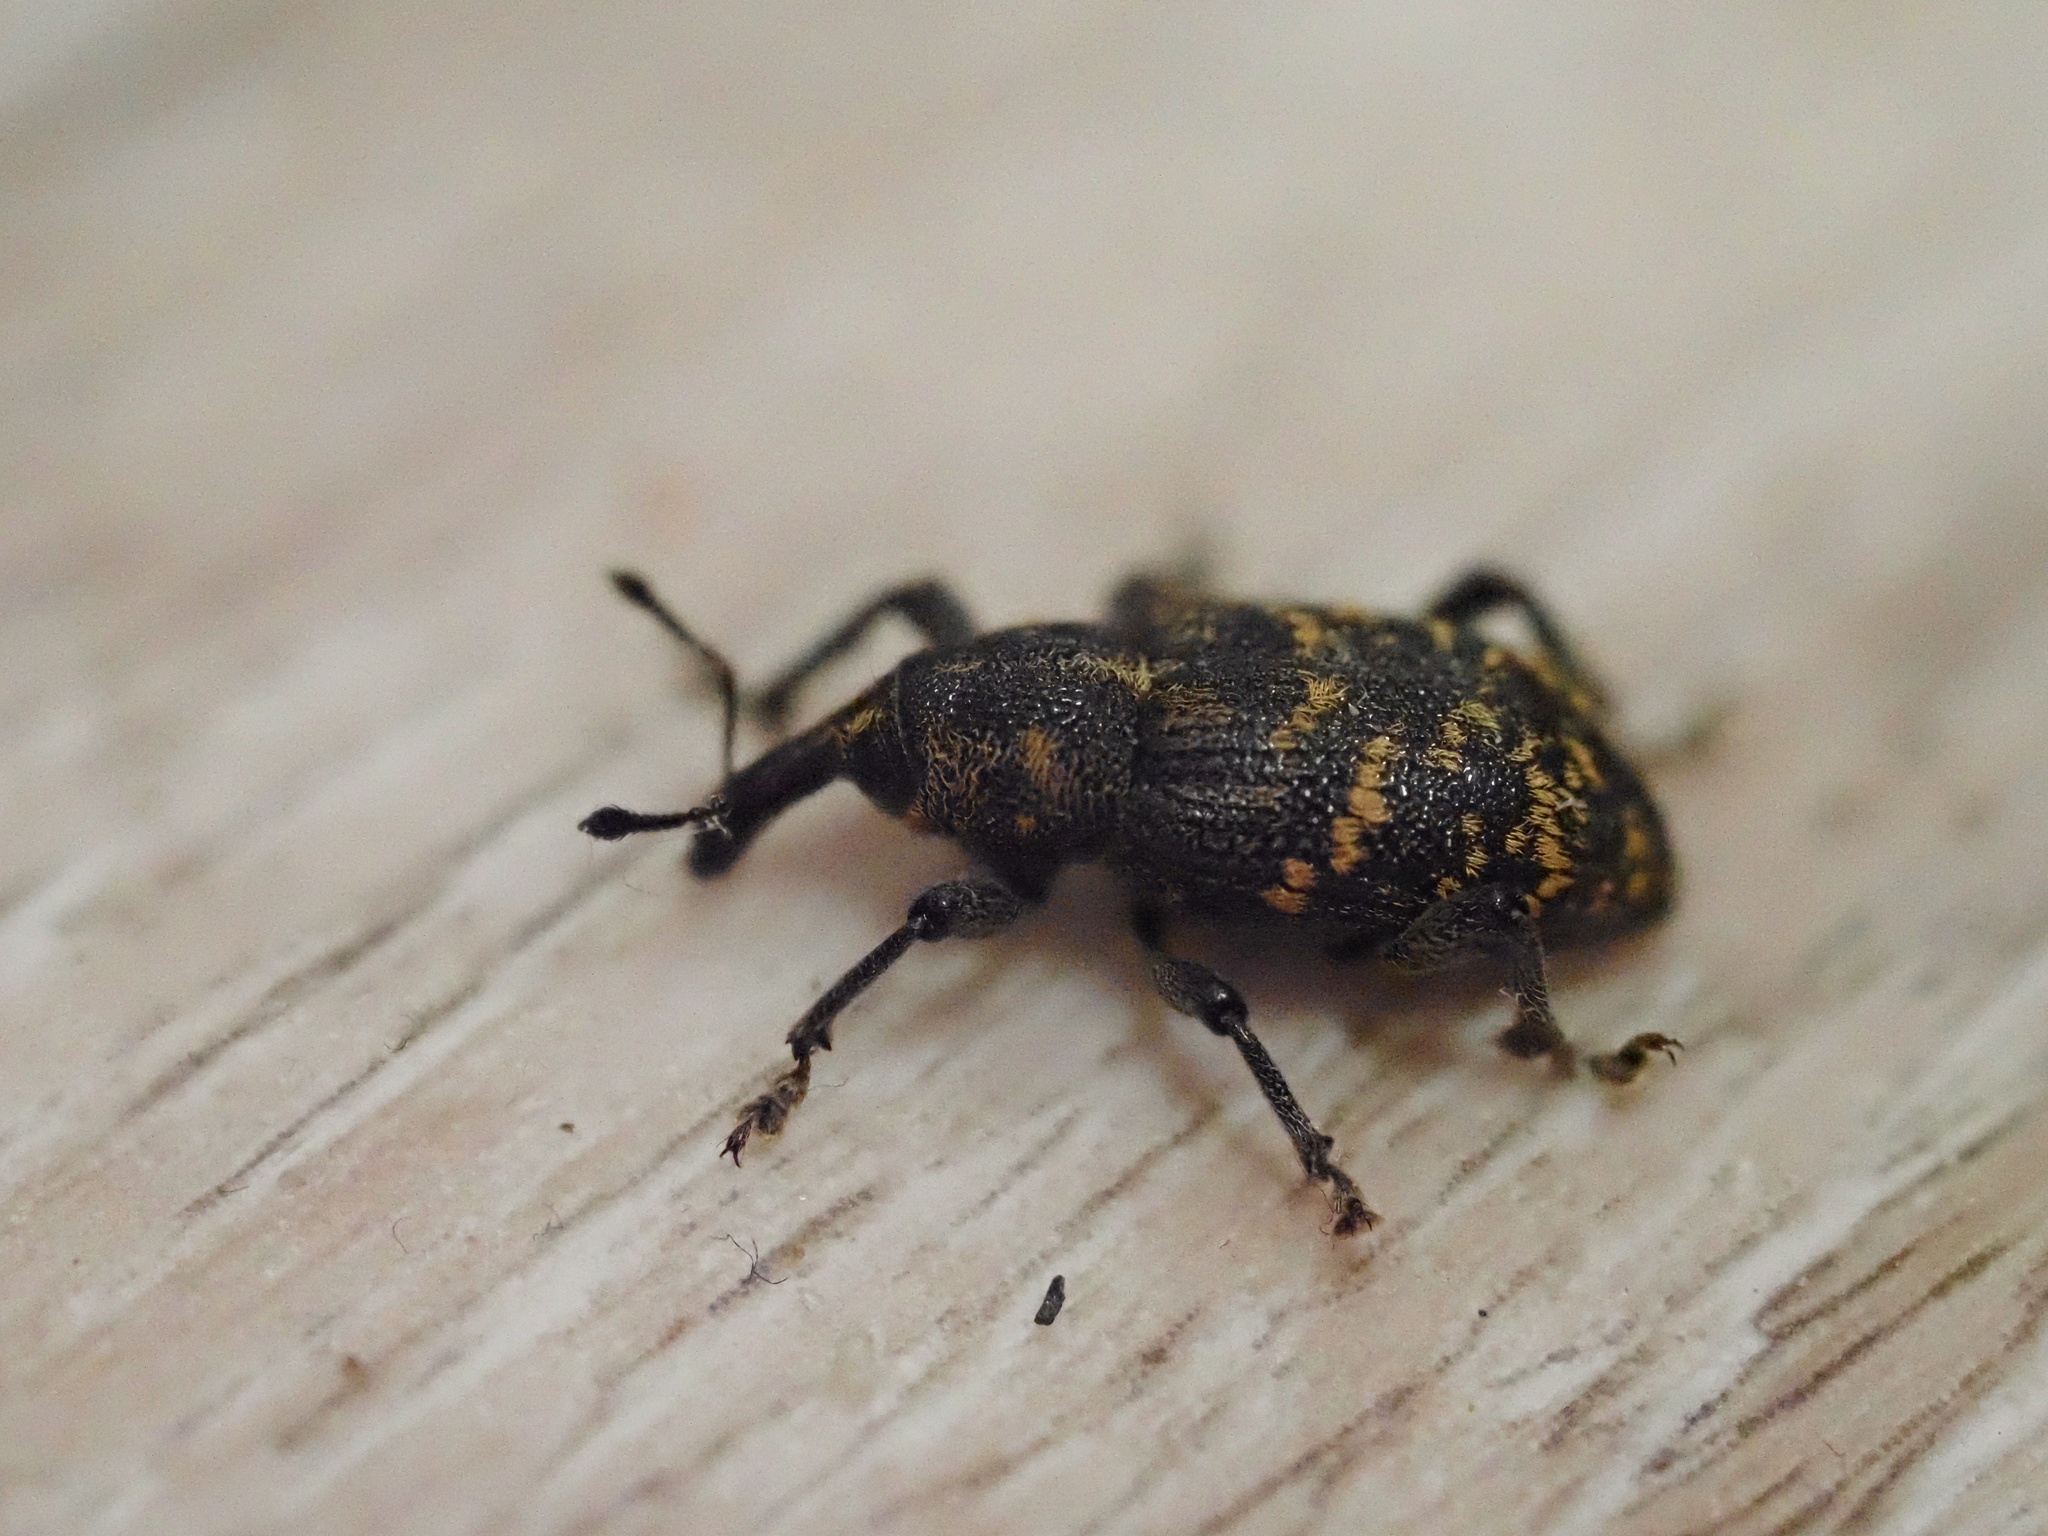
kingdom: Animalia
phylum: Arthropoda
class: Insecta
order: Coleoptera
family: Curculionidae
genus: Hylobius
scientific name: Hylobius abietis
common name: Large pine weevil
